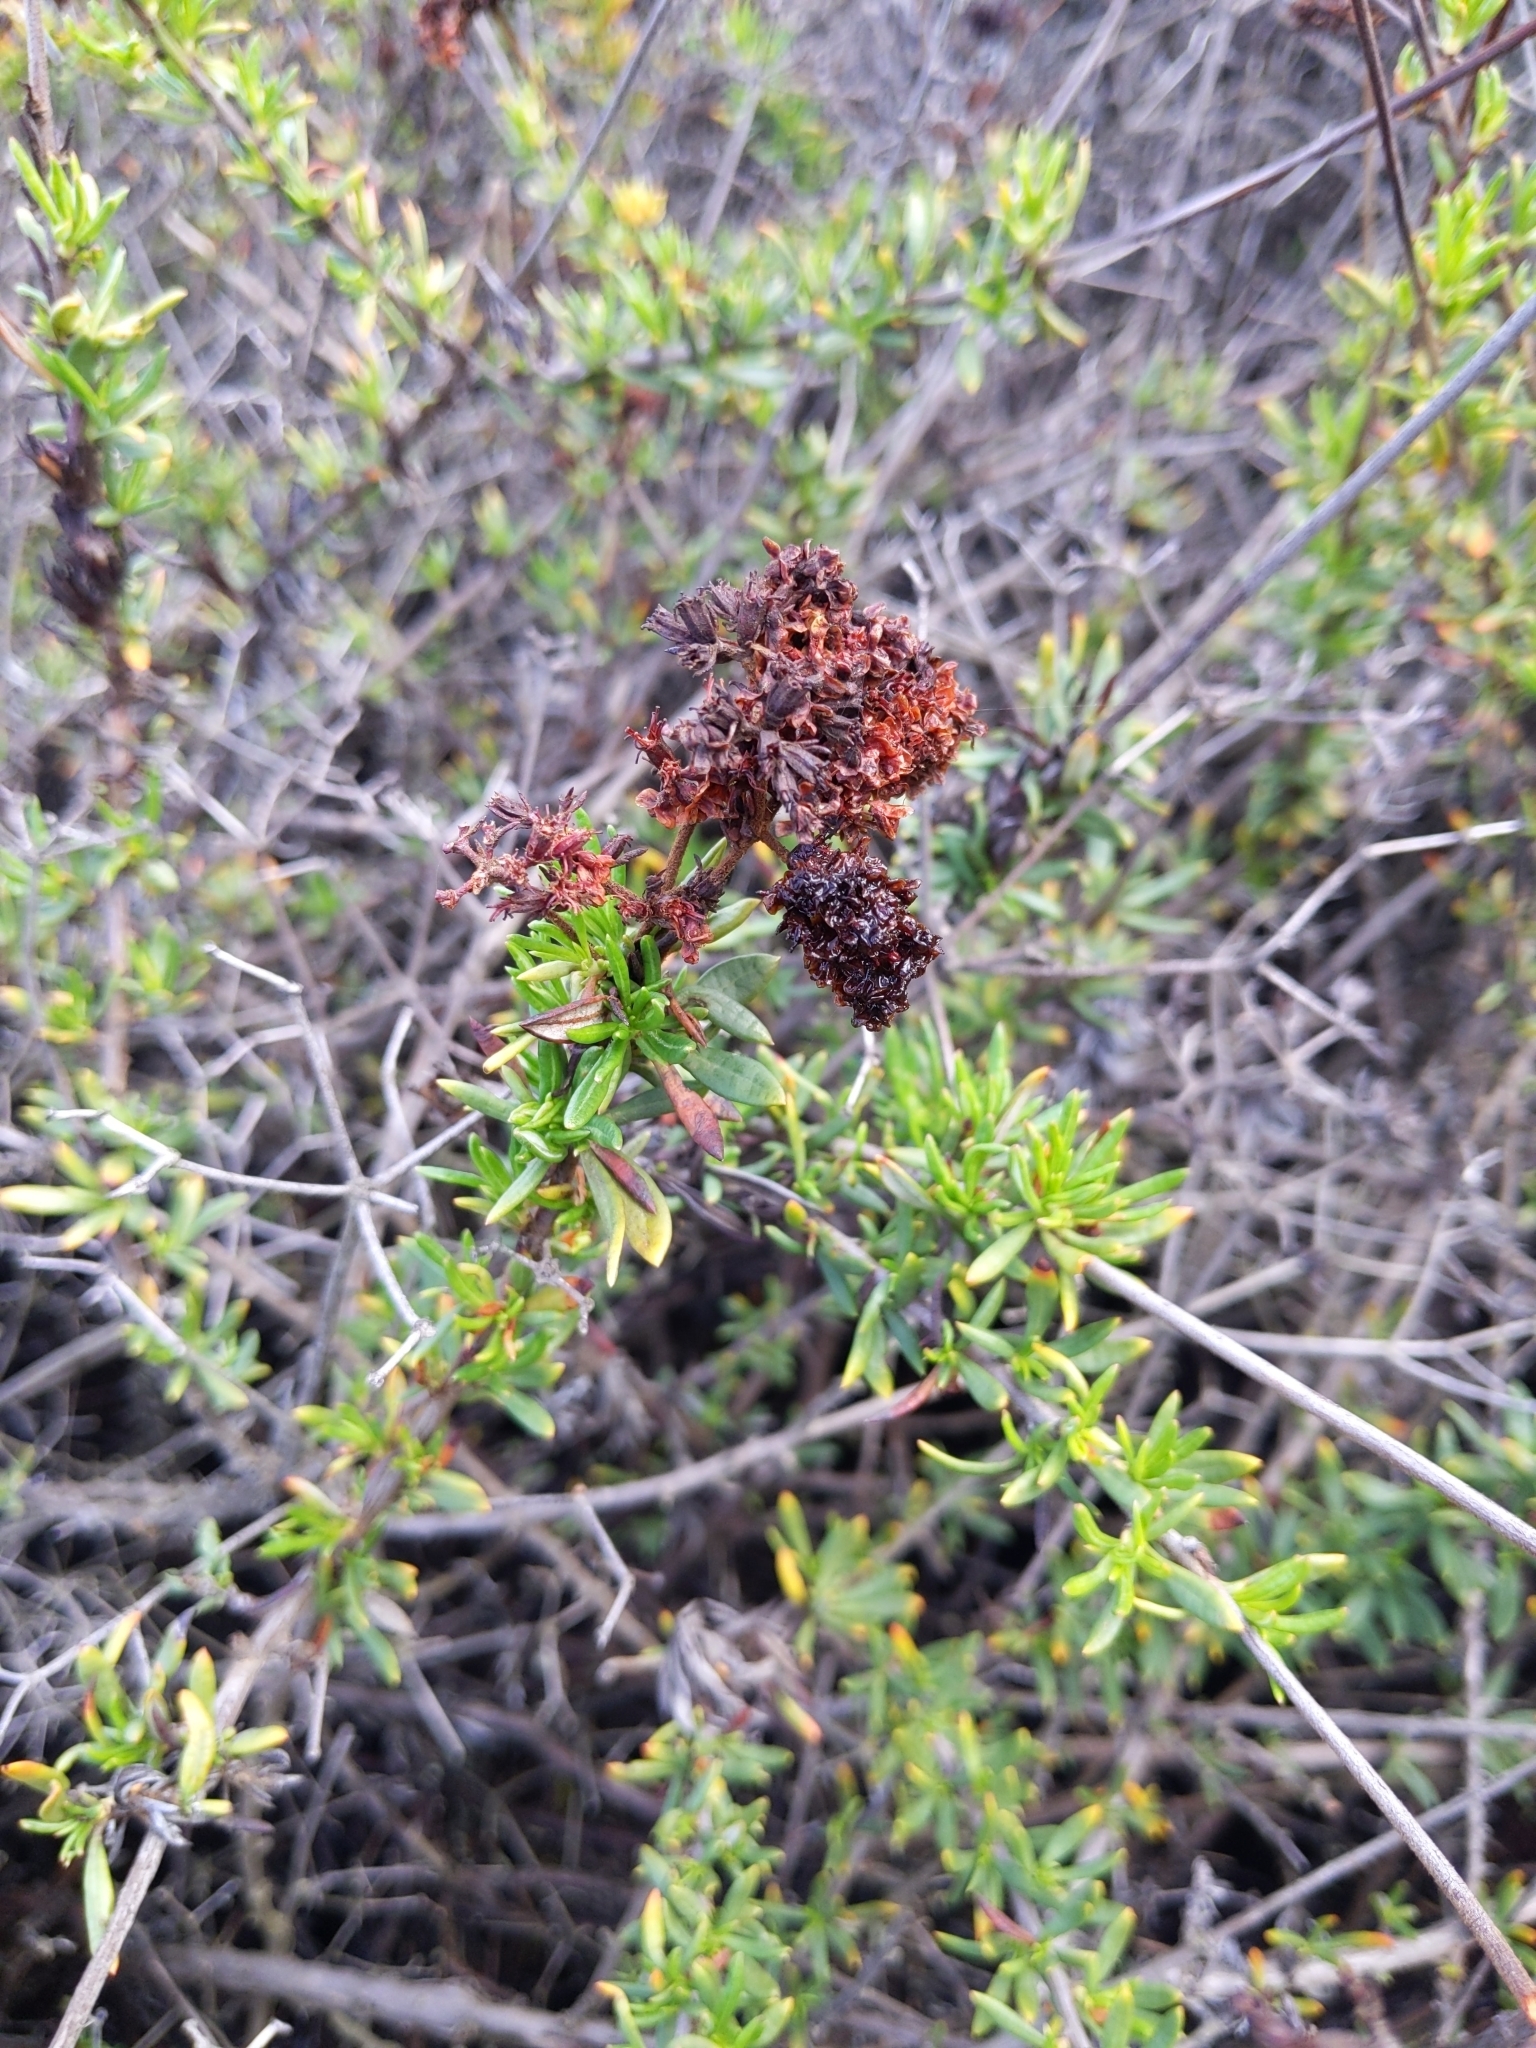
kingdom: Plantae
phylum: Tracheophyta
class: Magnoliopsida
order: Caryophyllales
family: Polygonaceae
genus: Eriogonum
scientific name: Eriogonum fasciculatum
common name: California wild buckwheat
